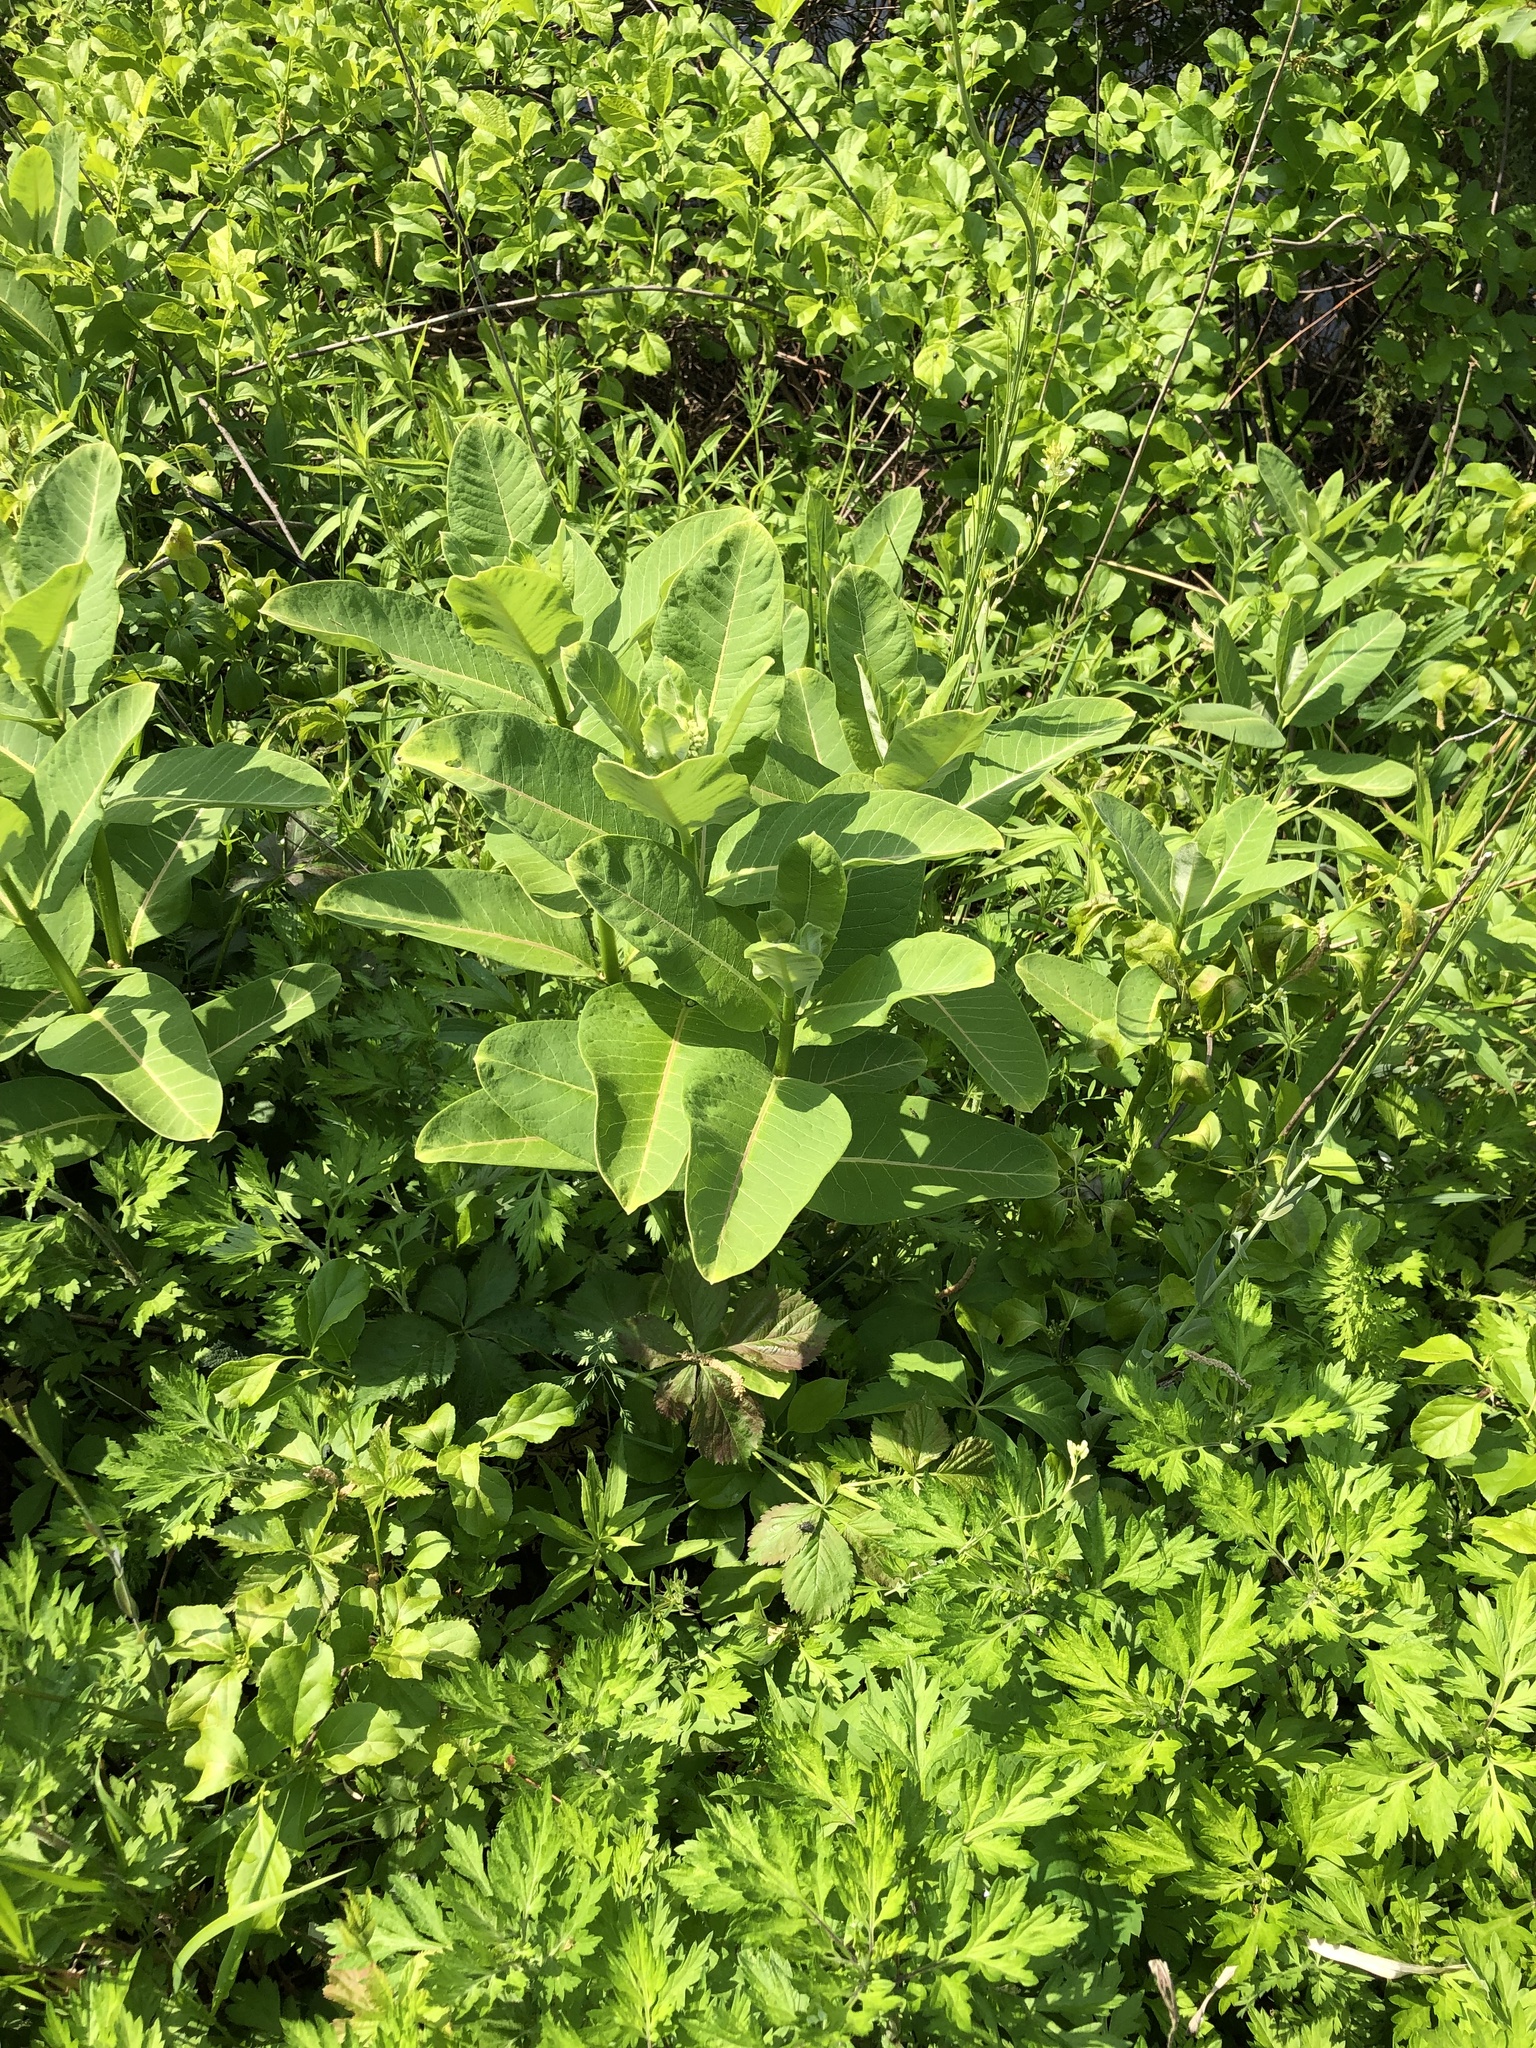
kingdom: Plantae
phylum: Tracheophyta
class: Magnoliopsida
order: Gentianales
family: Apocynaceae
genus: Asclepias
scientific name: Asclepias syriaca
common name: Common milkweed
